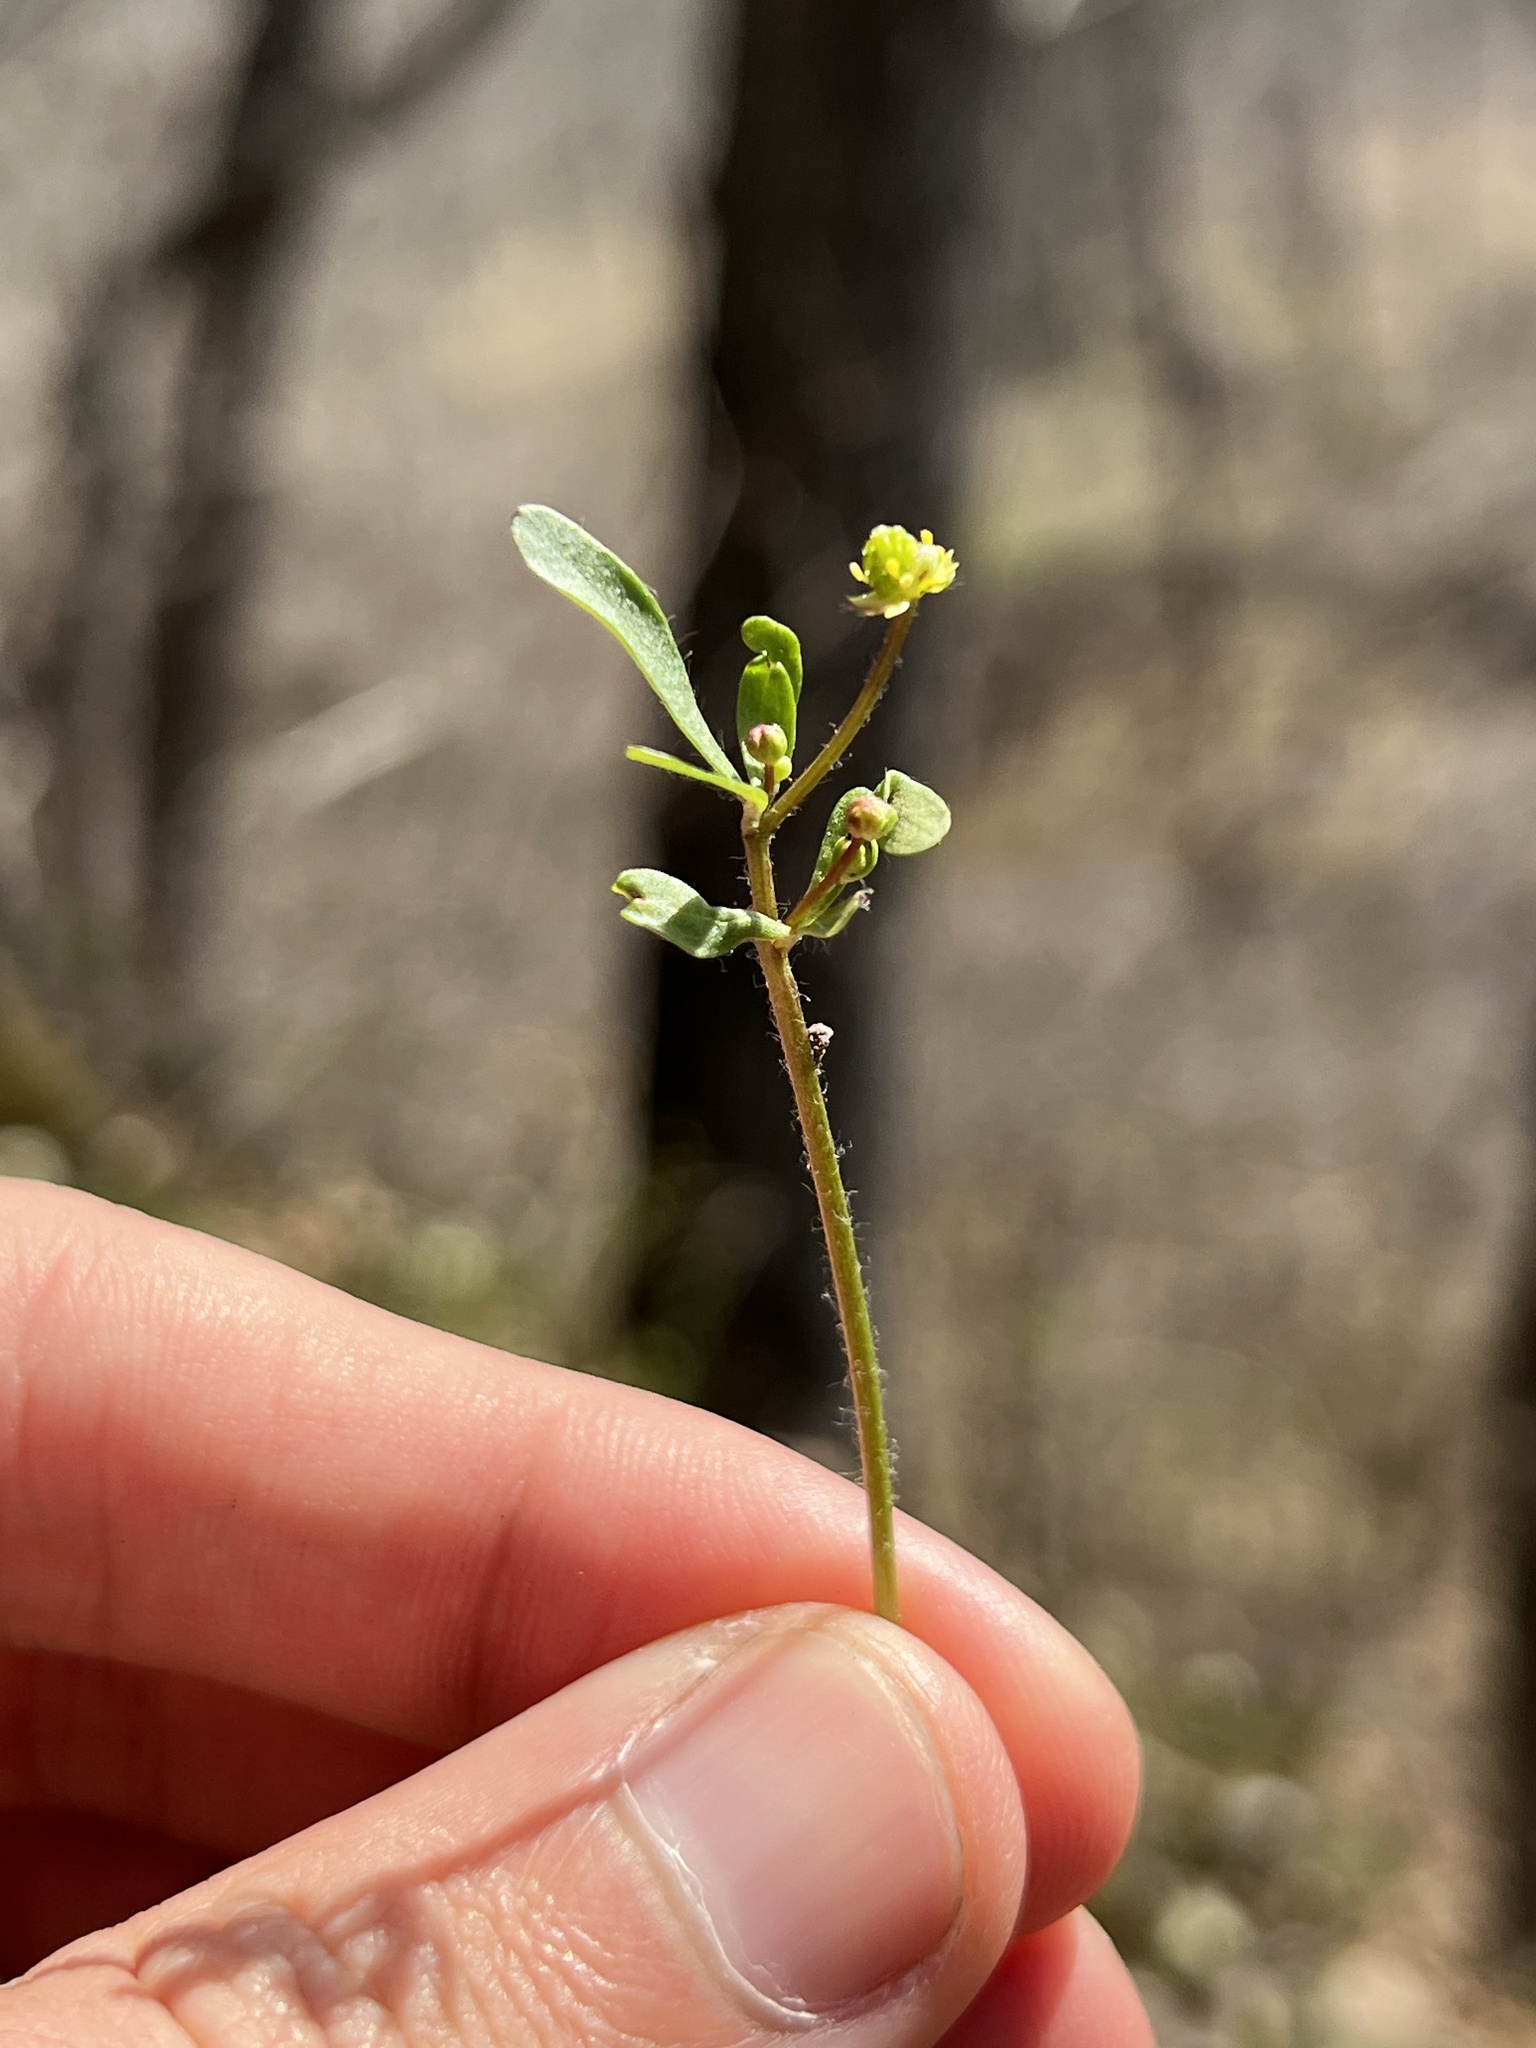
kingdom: Plantae
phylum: Tracheophyta
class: Magnoliopsida
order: Ranunculales
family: Ranunculaceae
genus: Ranunculus
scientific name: Ranunculus micranthus
